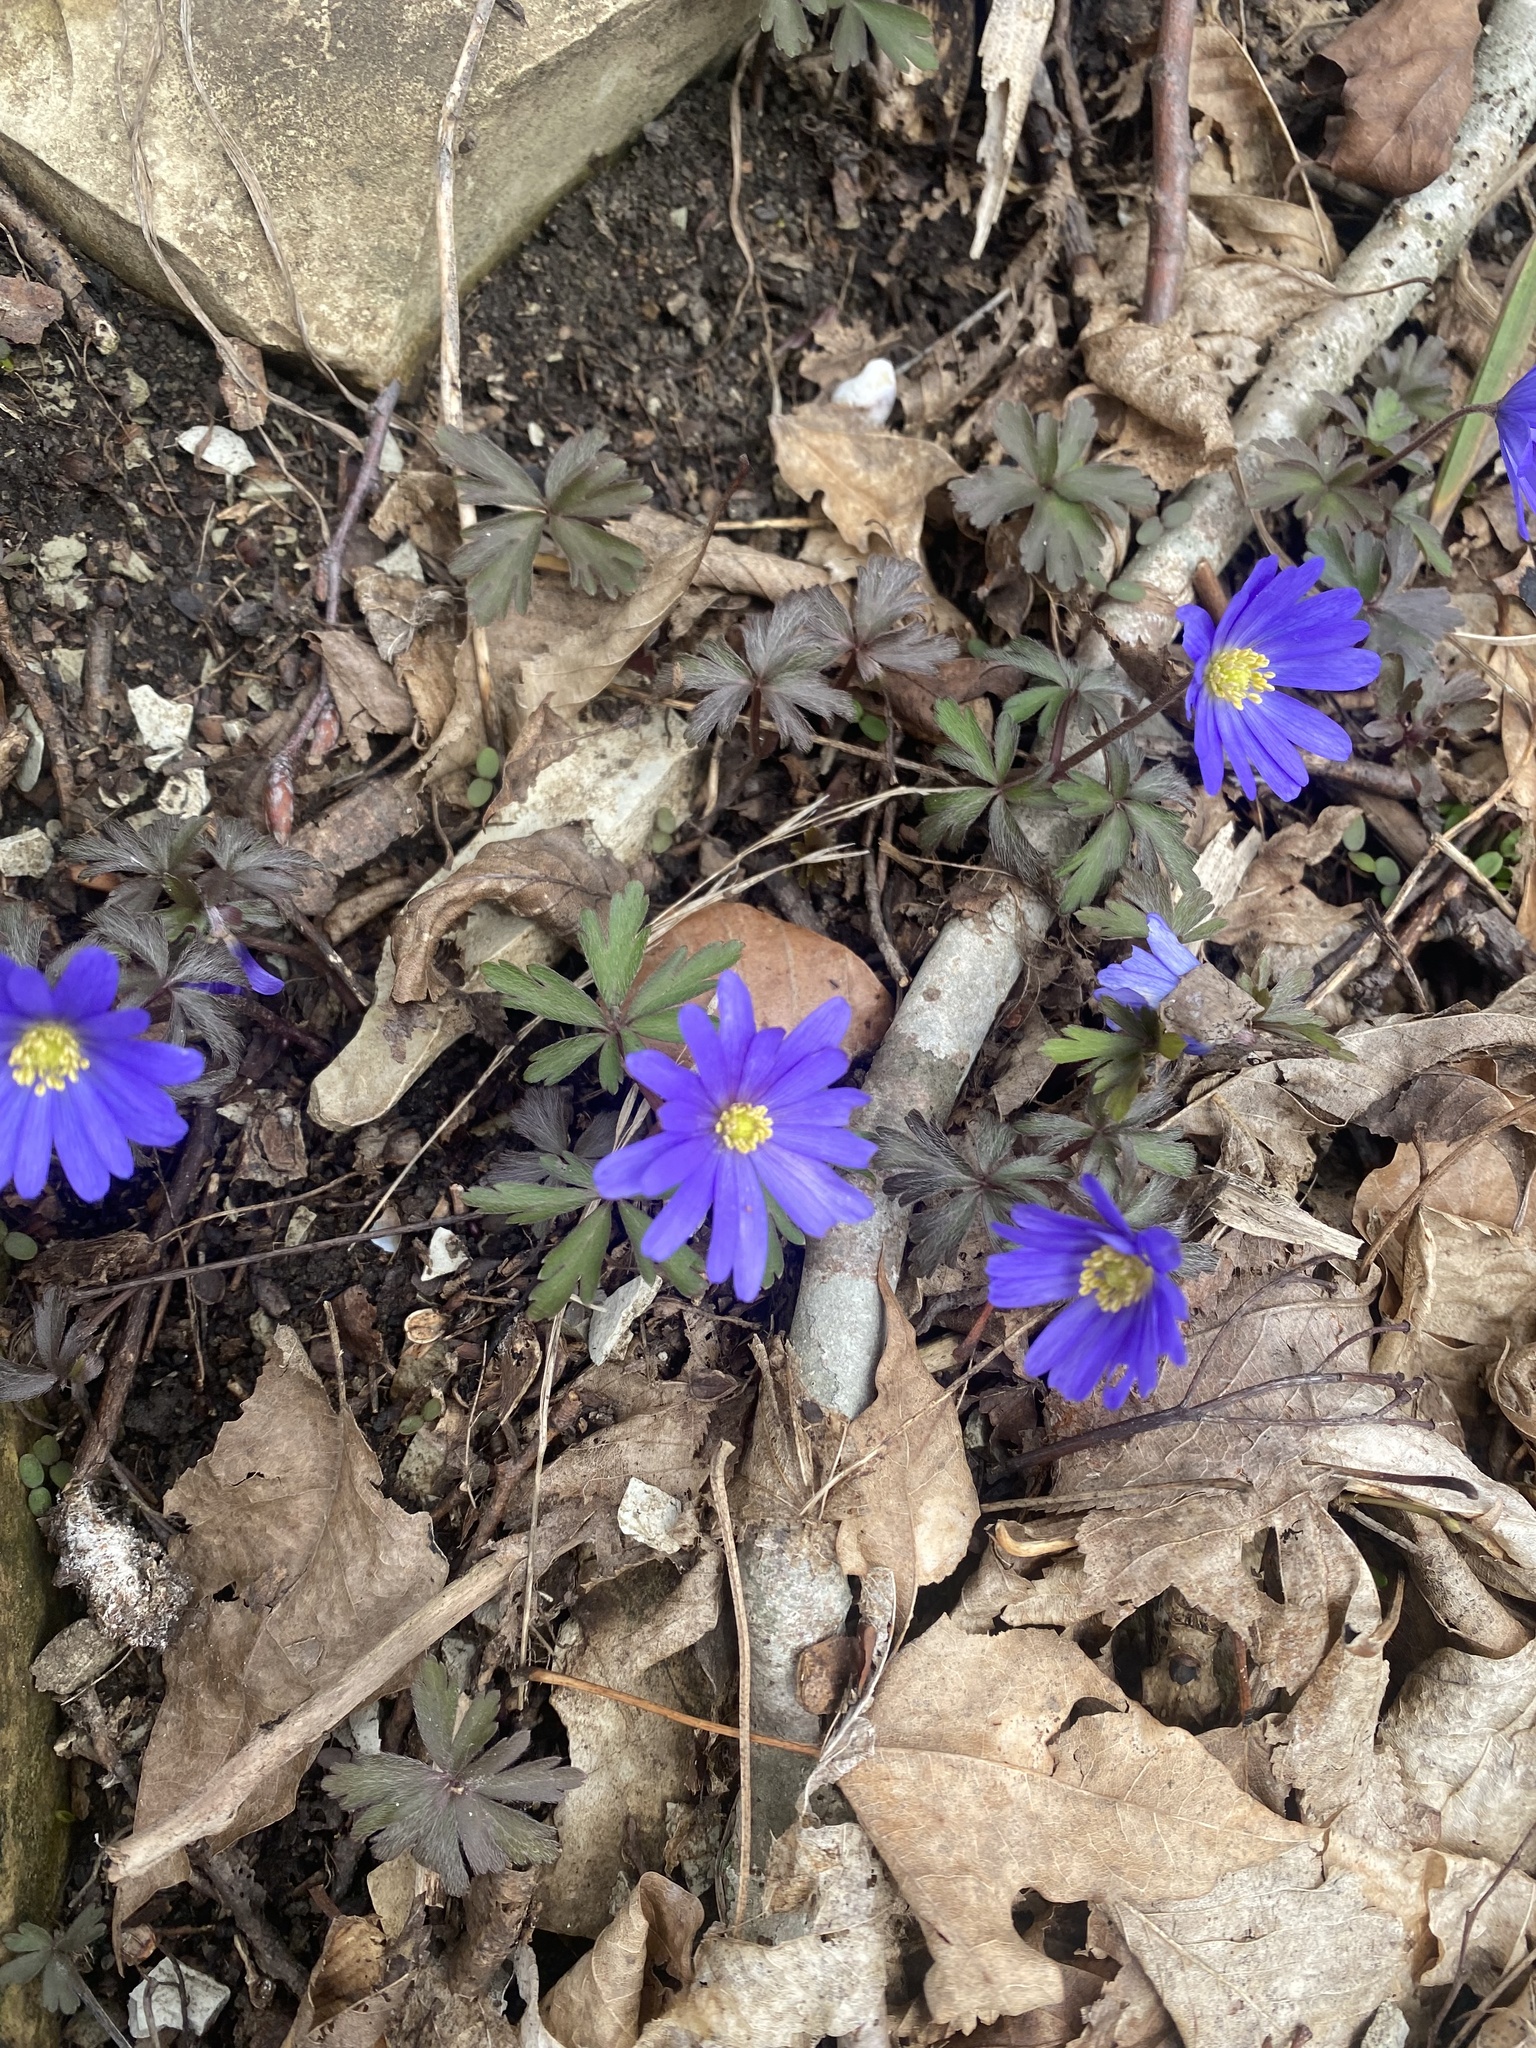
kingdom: Plantae
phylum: Tracheophyta
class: Magnoliopsida
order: Ranunculales
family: Ranunculaceae
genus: Anemone
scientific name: Anemone blanda
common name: Balkan anemone
